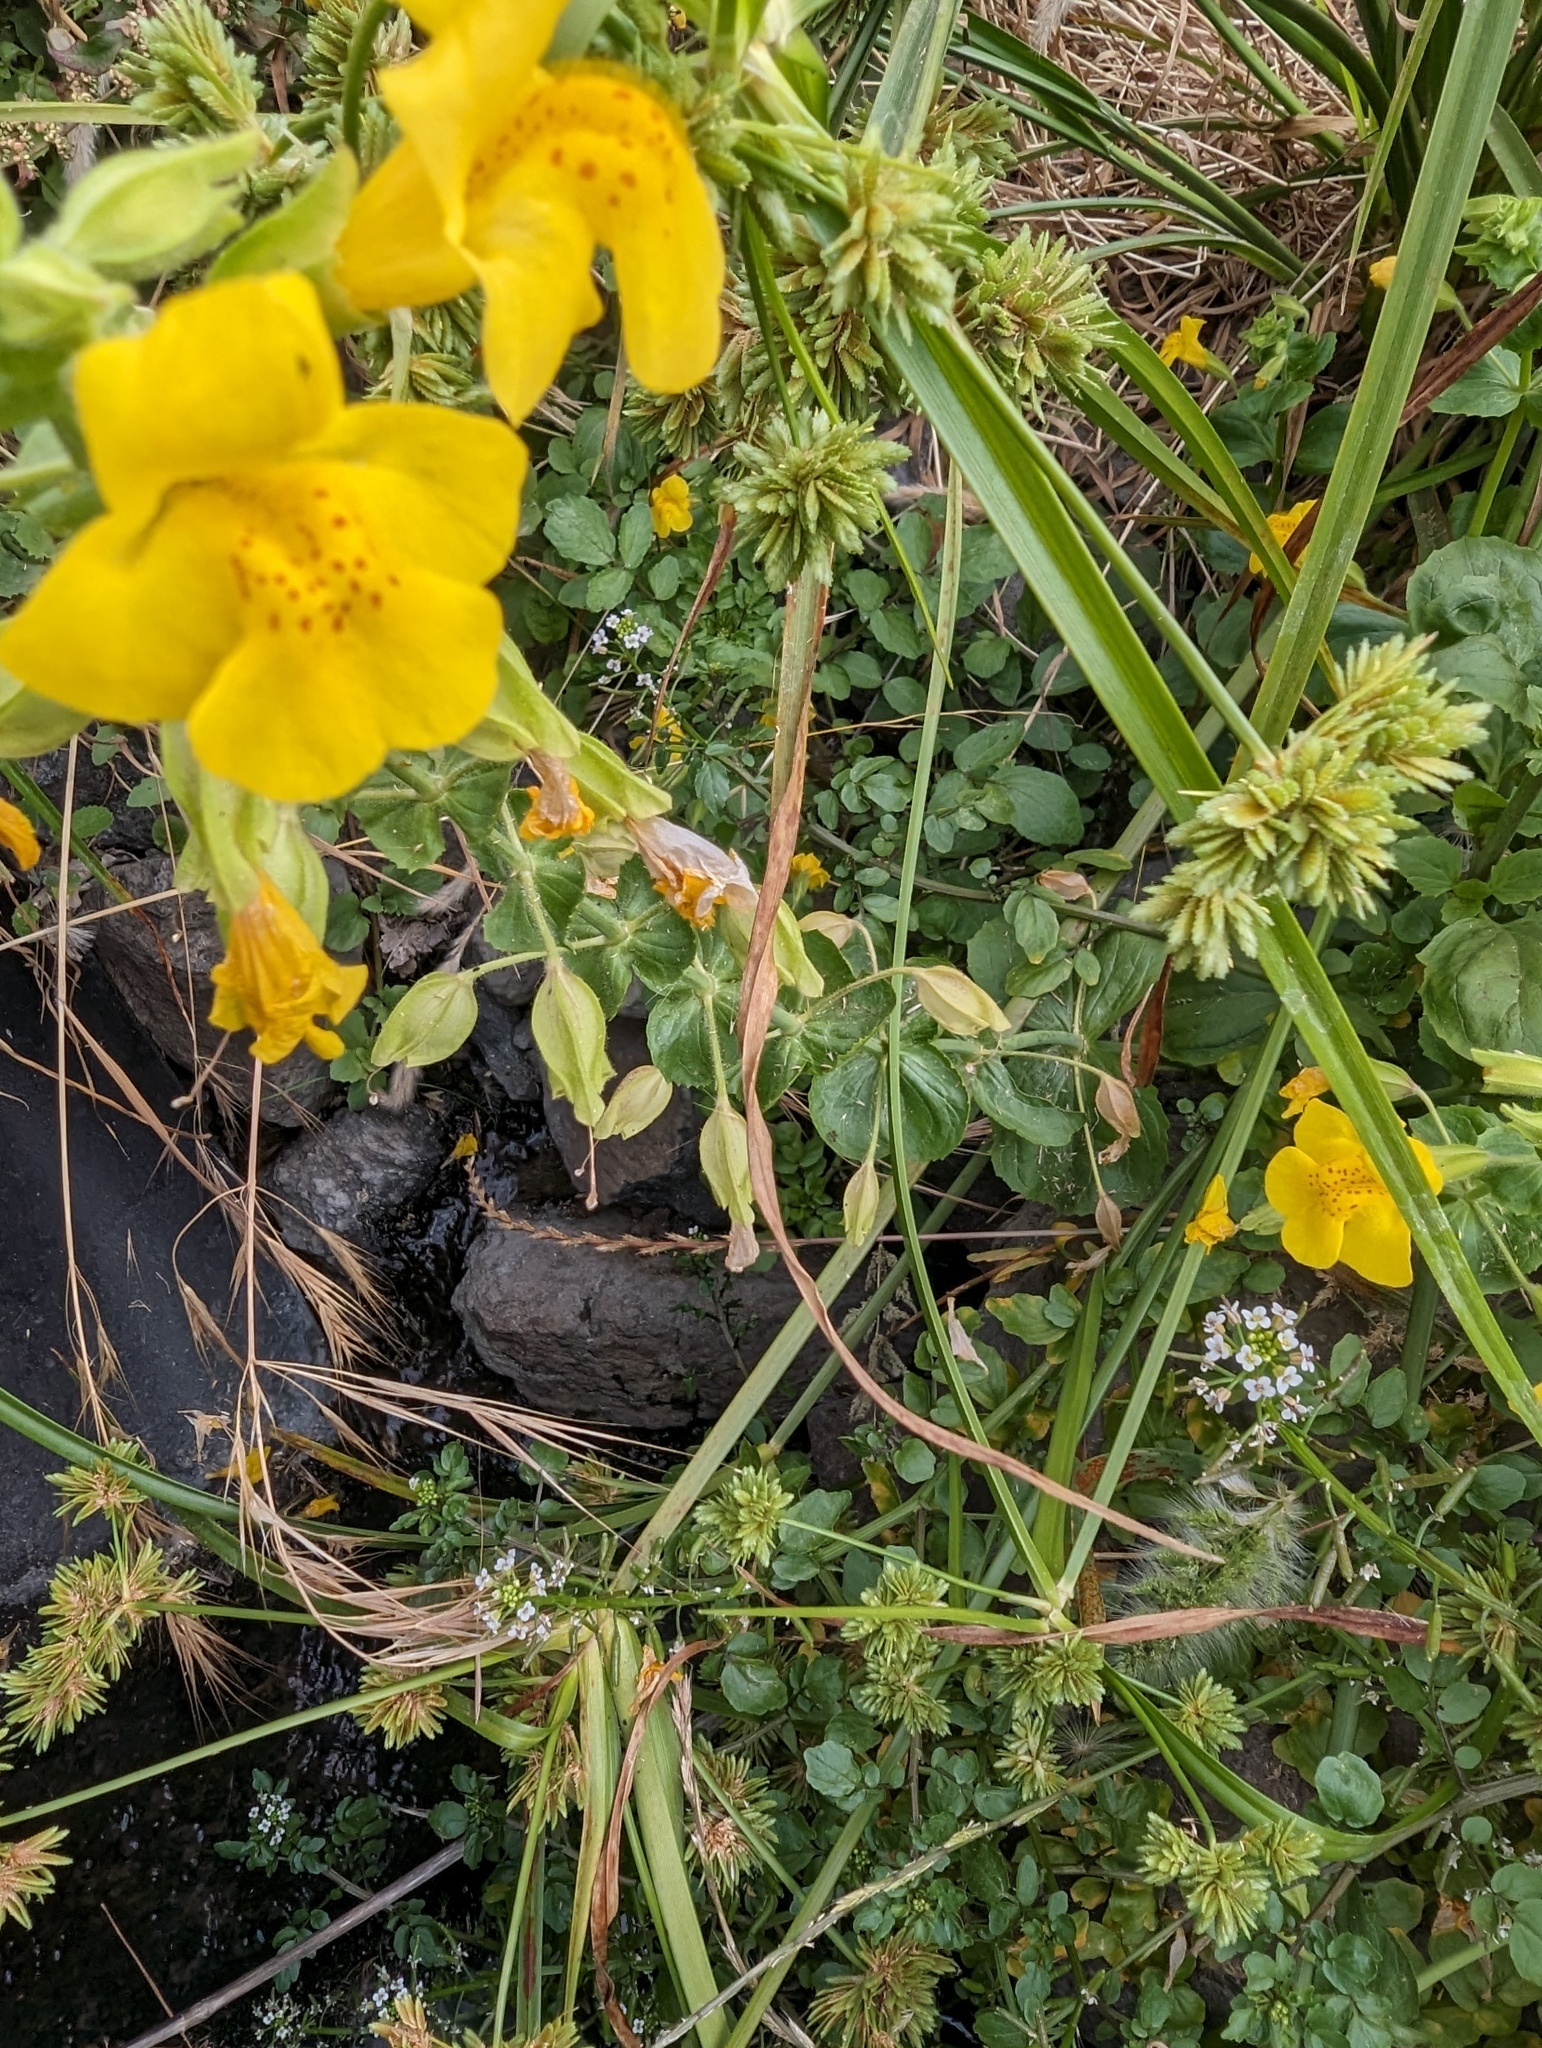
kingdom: Plantae
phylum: Tracheophyta
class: Magnoliopsida
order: Lamiales
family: Phrymaceae
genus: Erythranthe
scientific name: Erythranthe guttata
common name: Monkeyflower
